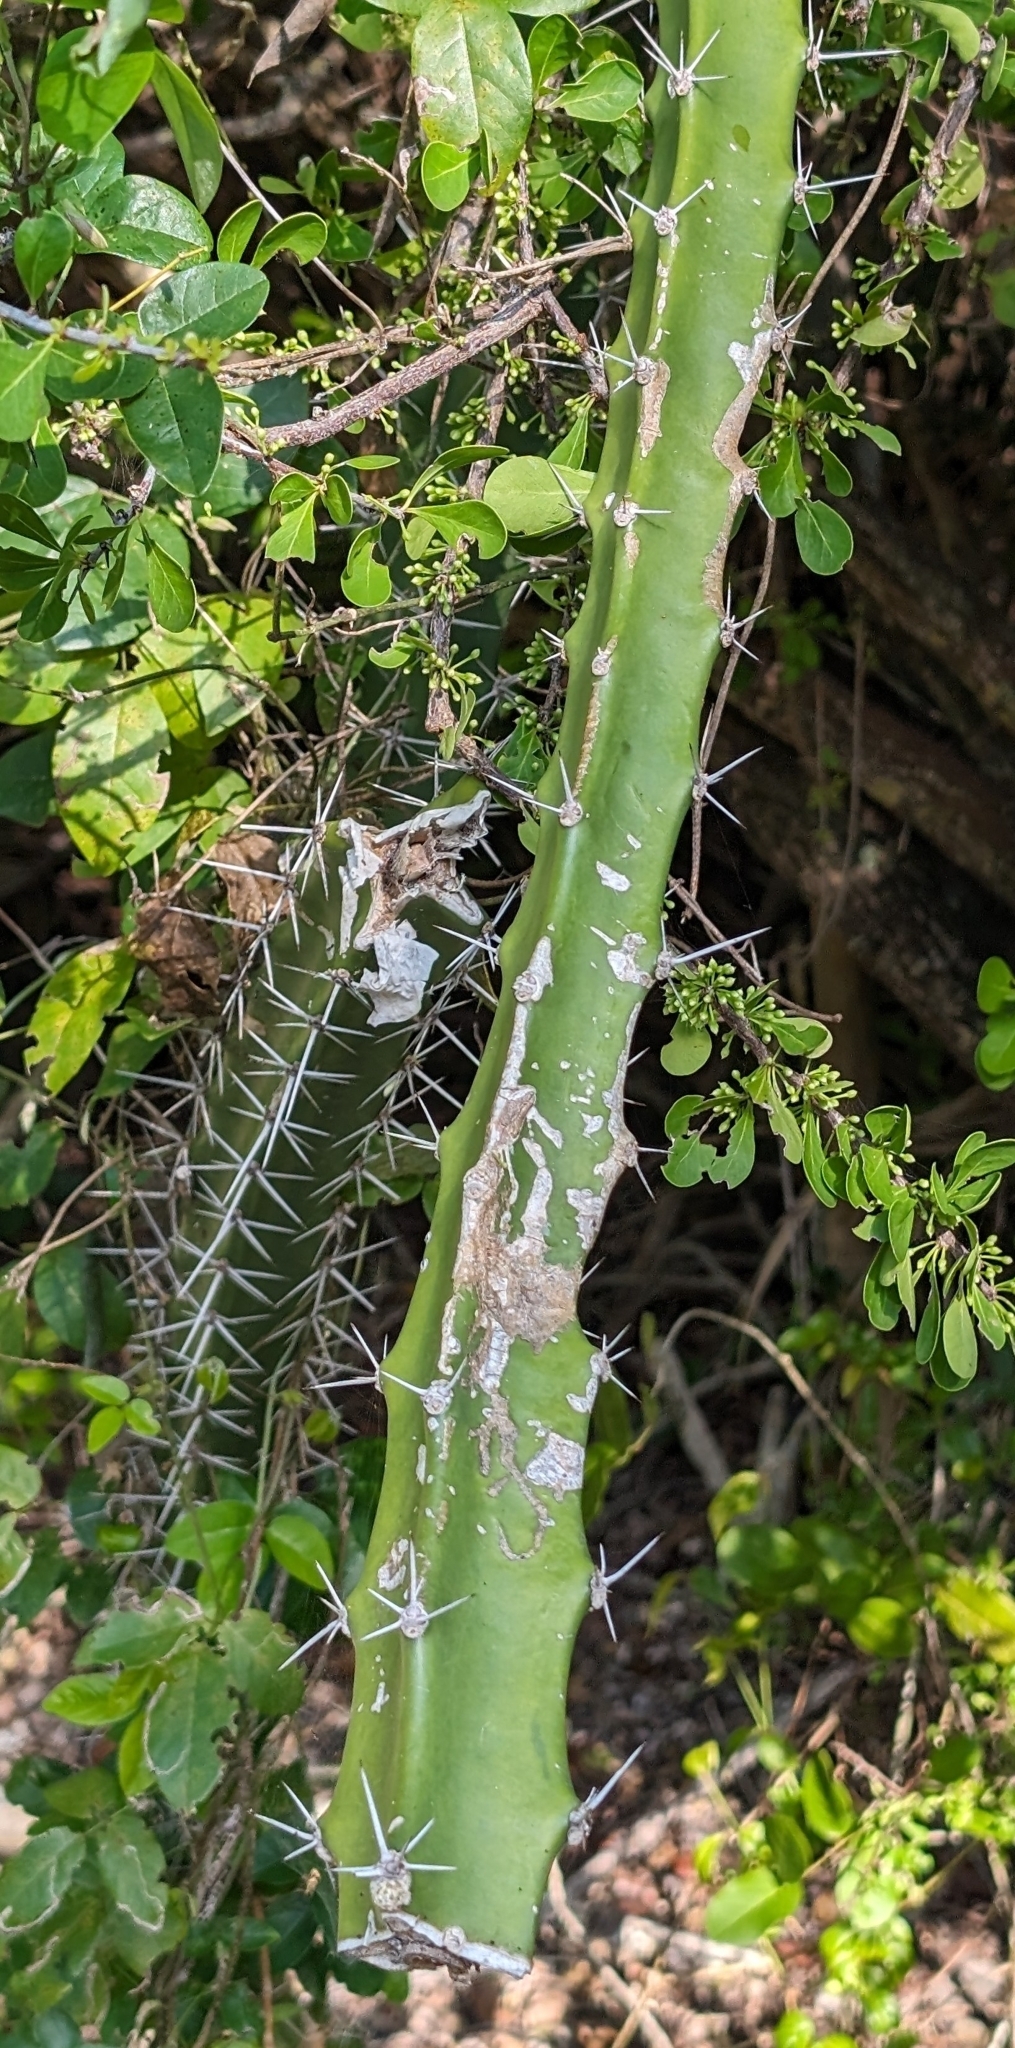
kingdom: Plantae
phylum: Tracheophyta
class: Magnoliopsida
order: Caryophyllales
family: Cactaceae
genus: Acanthocereus
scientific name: Acanthocereus tetragonus
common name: Triangle cactus
